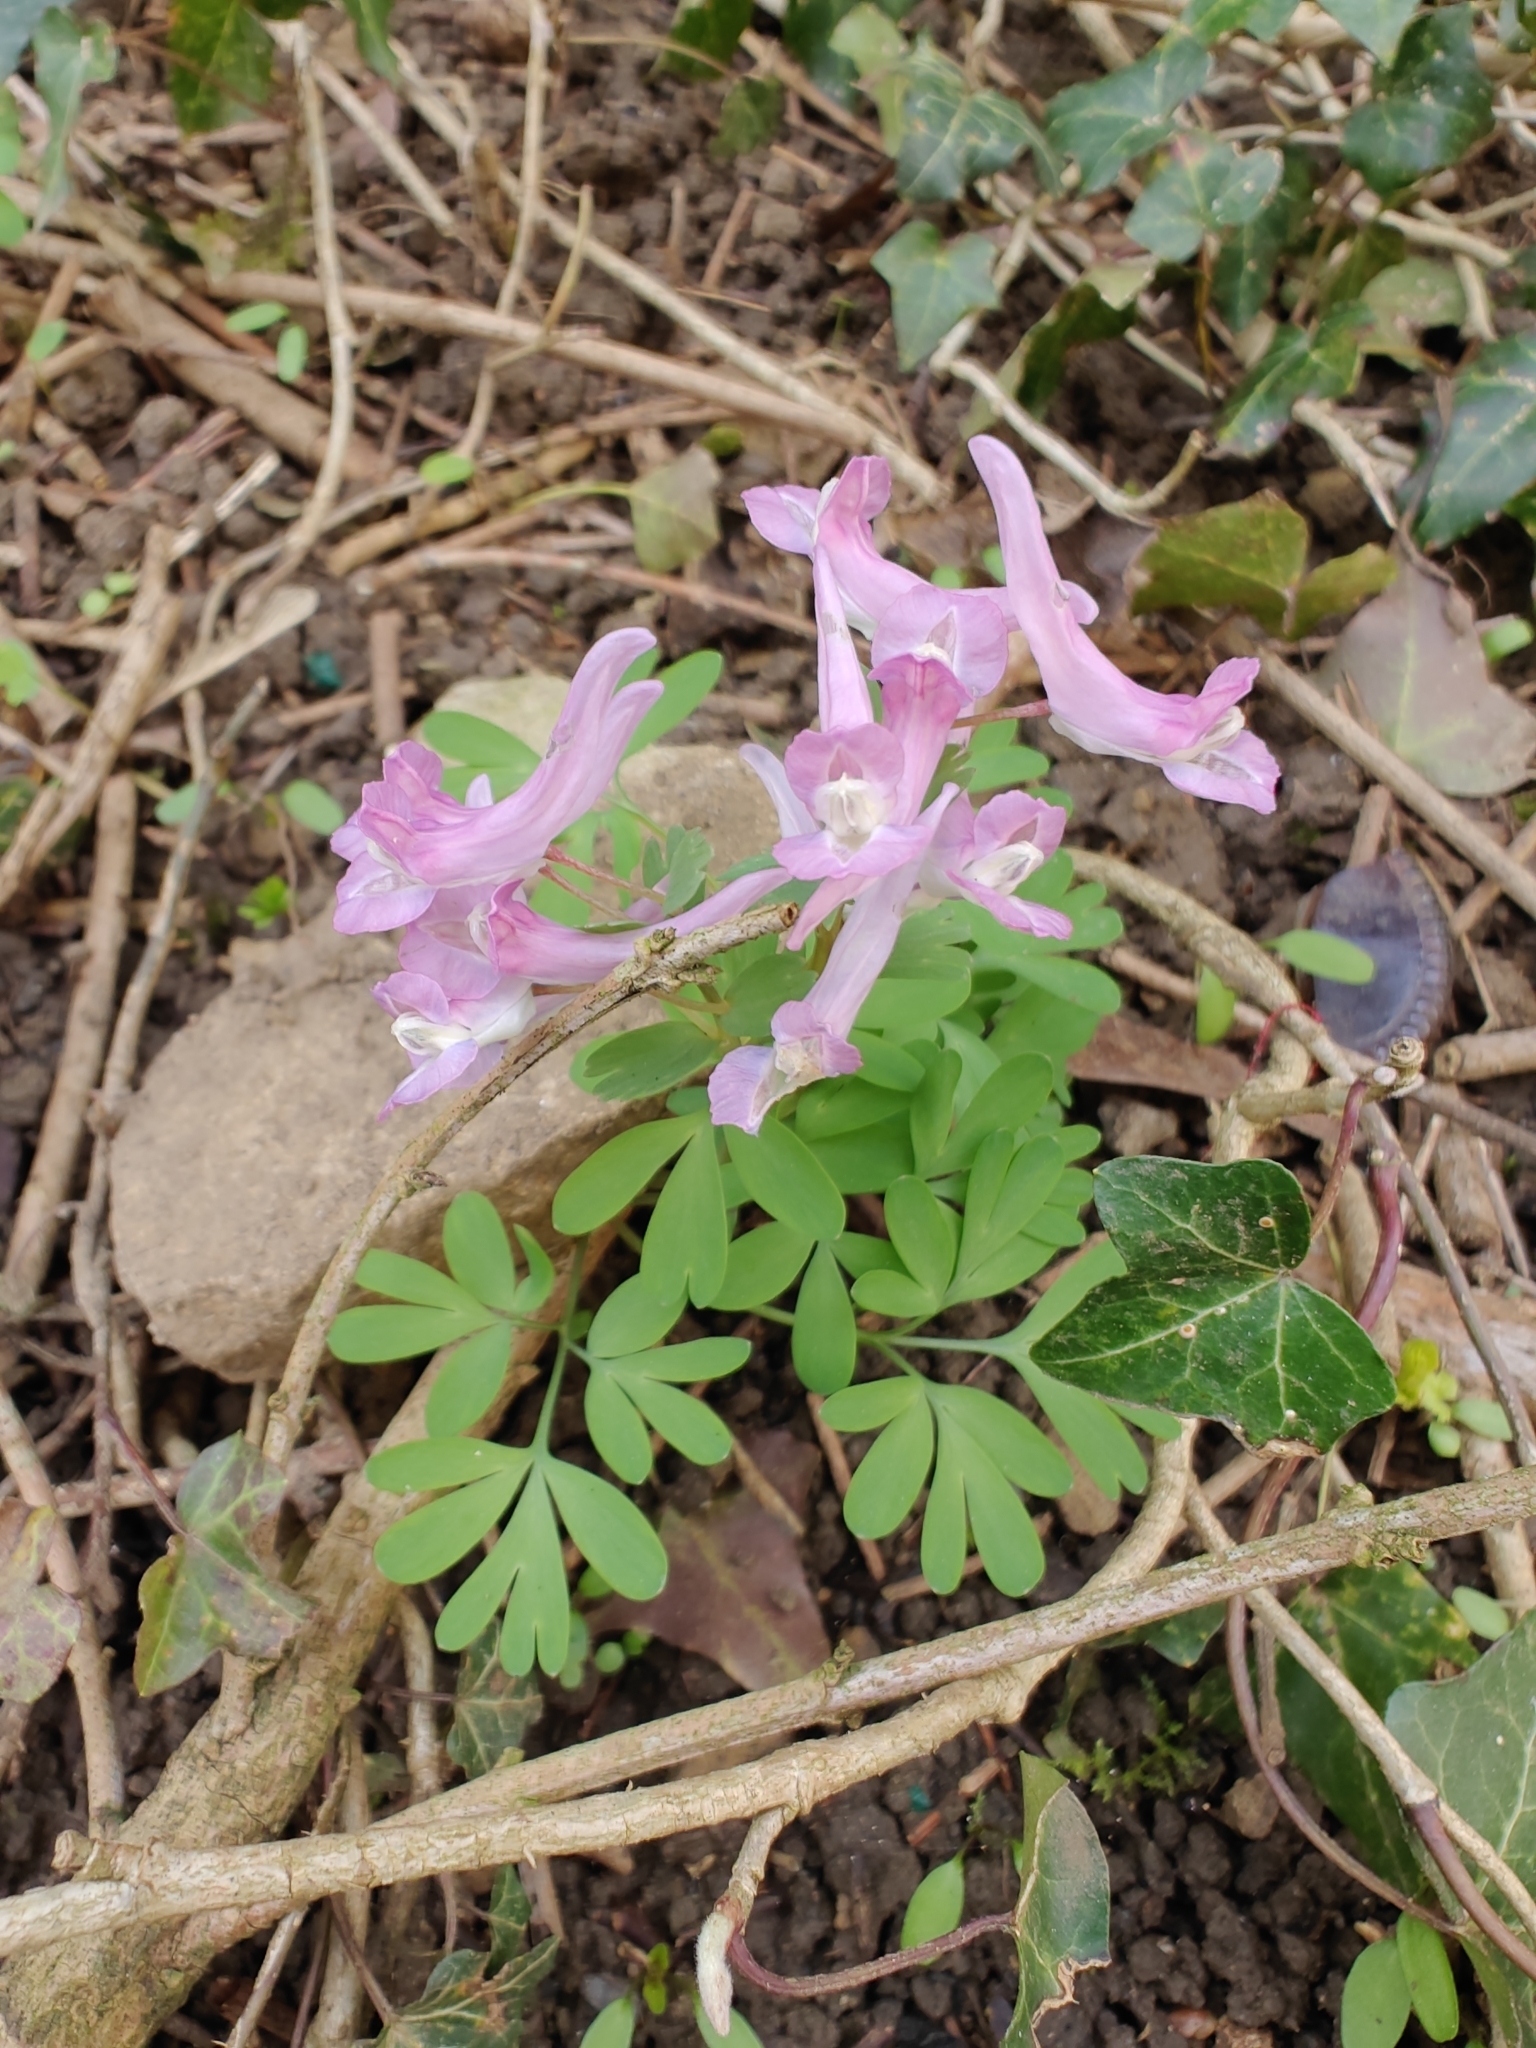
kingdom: Plantae
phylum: Tracheophyta
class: Magnoliopsida
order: Ranunculales
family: Papaveraceae
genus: Corydalis
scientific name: Corydalis solida
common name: Bird-in-a-bush
